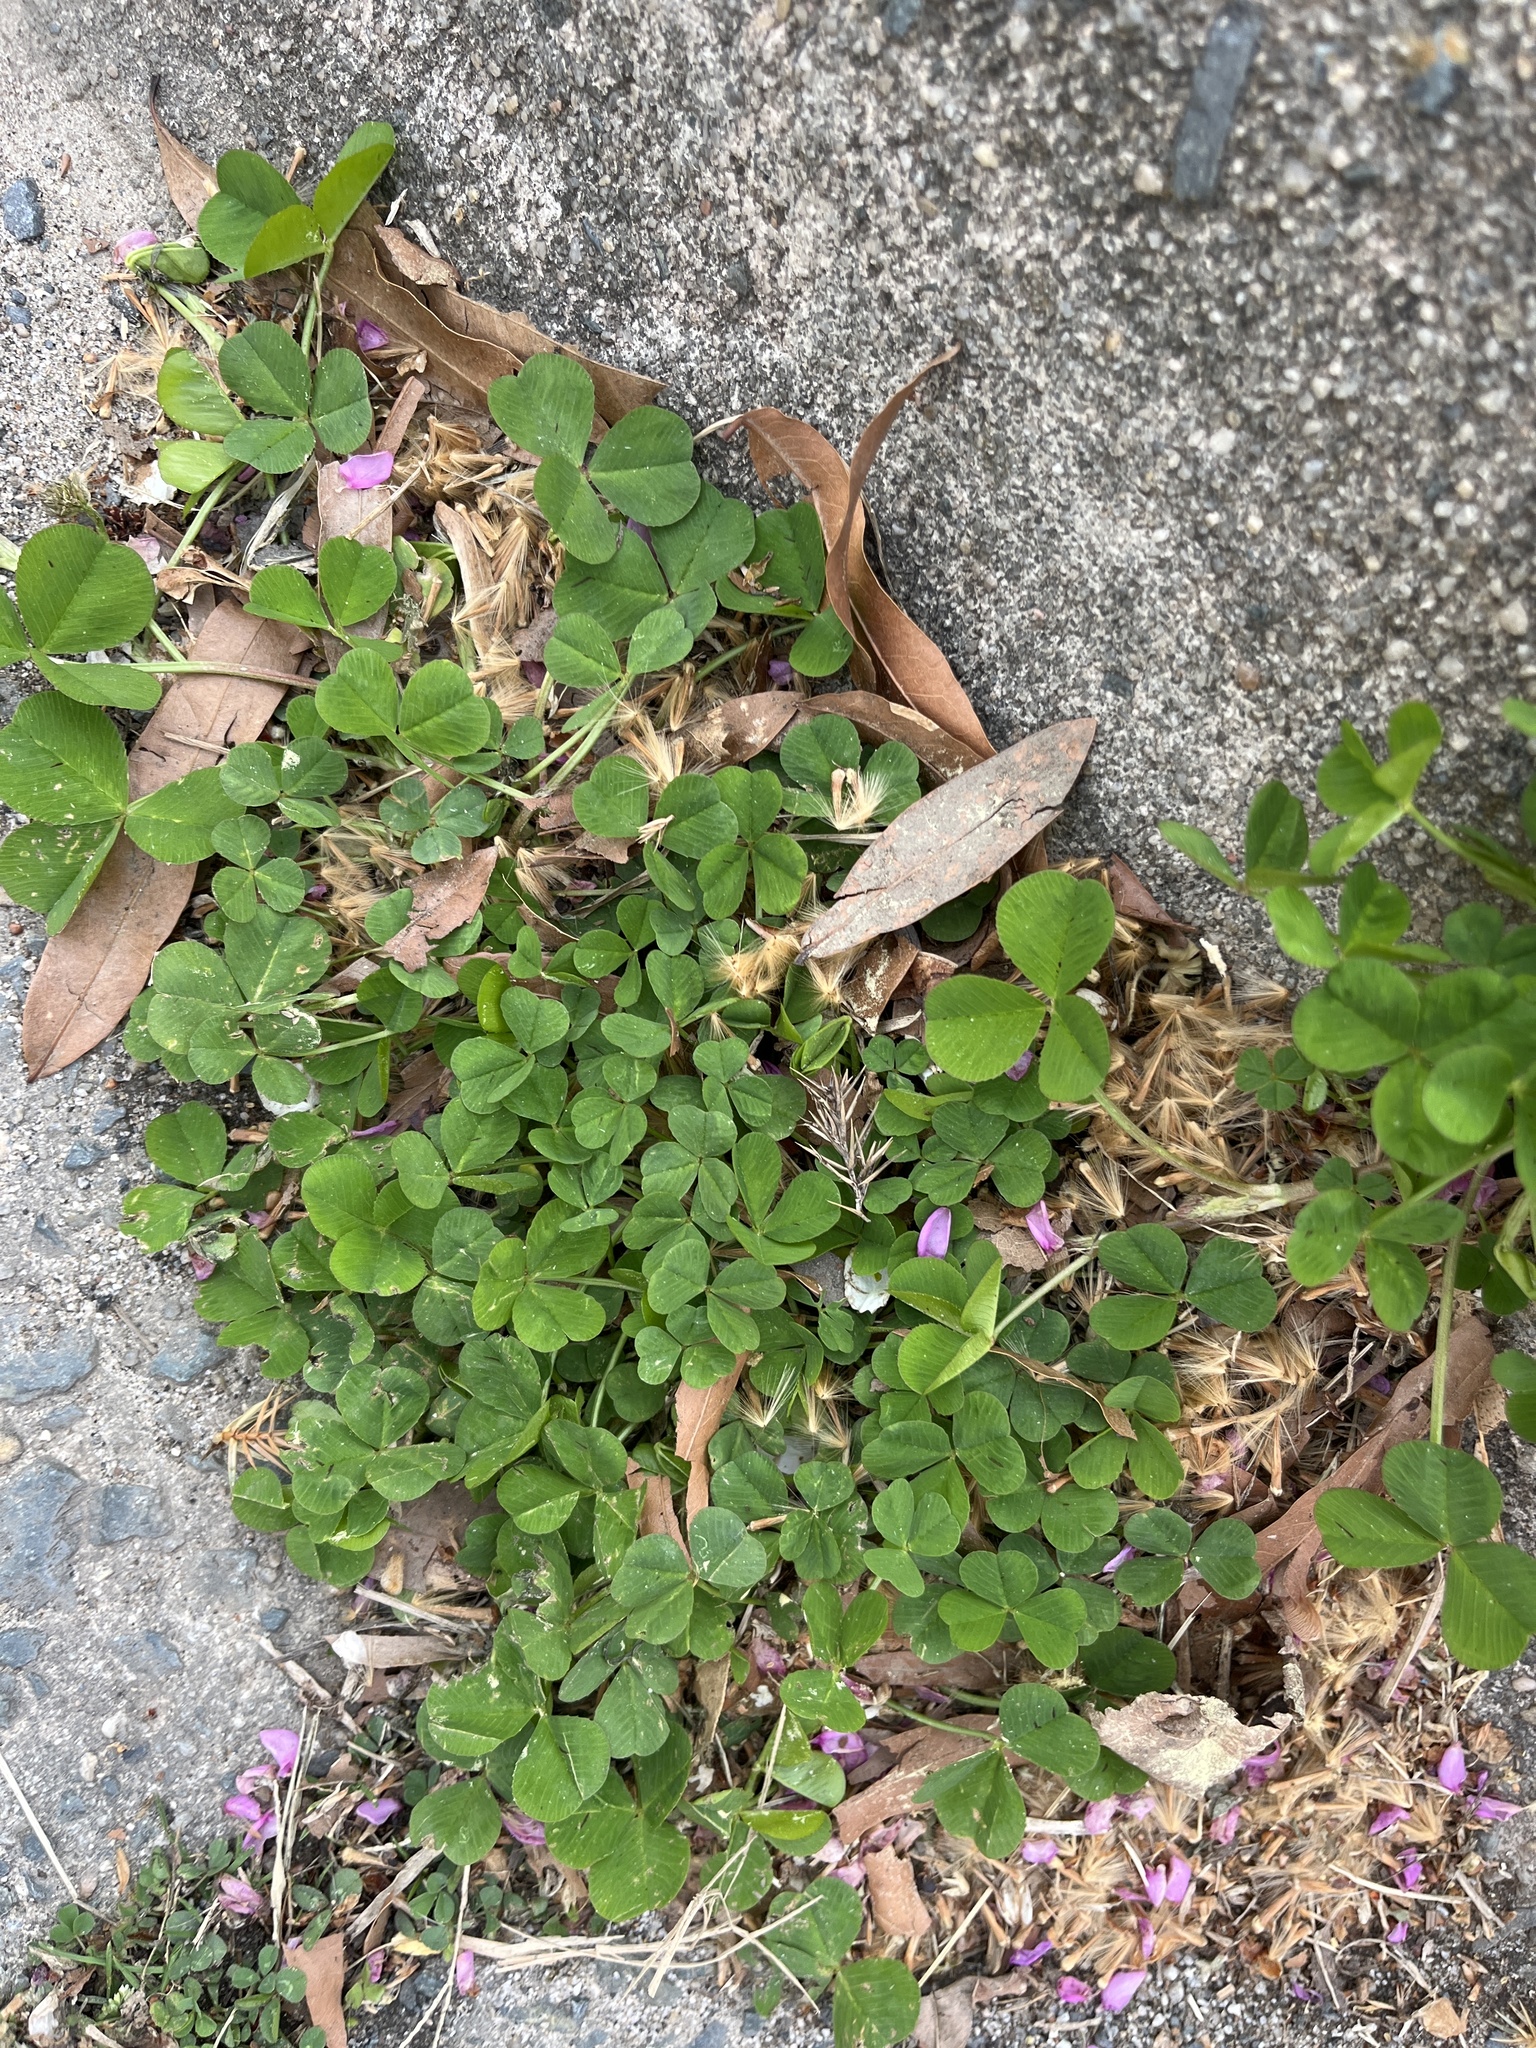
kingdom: Plantae
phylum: Tracheophyta
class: Magnoliopsida
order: Fabales
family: Fabaceae
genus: Trifolium
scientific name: Trifolium repens
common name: White clover
